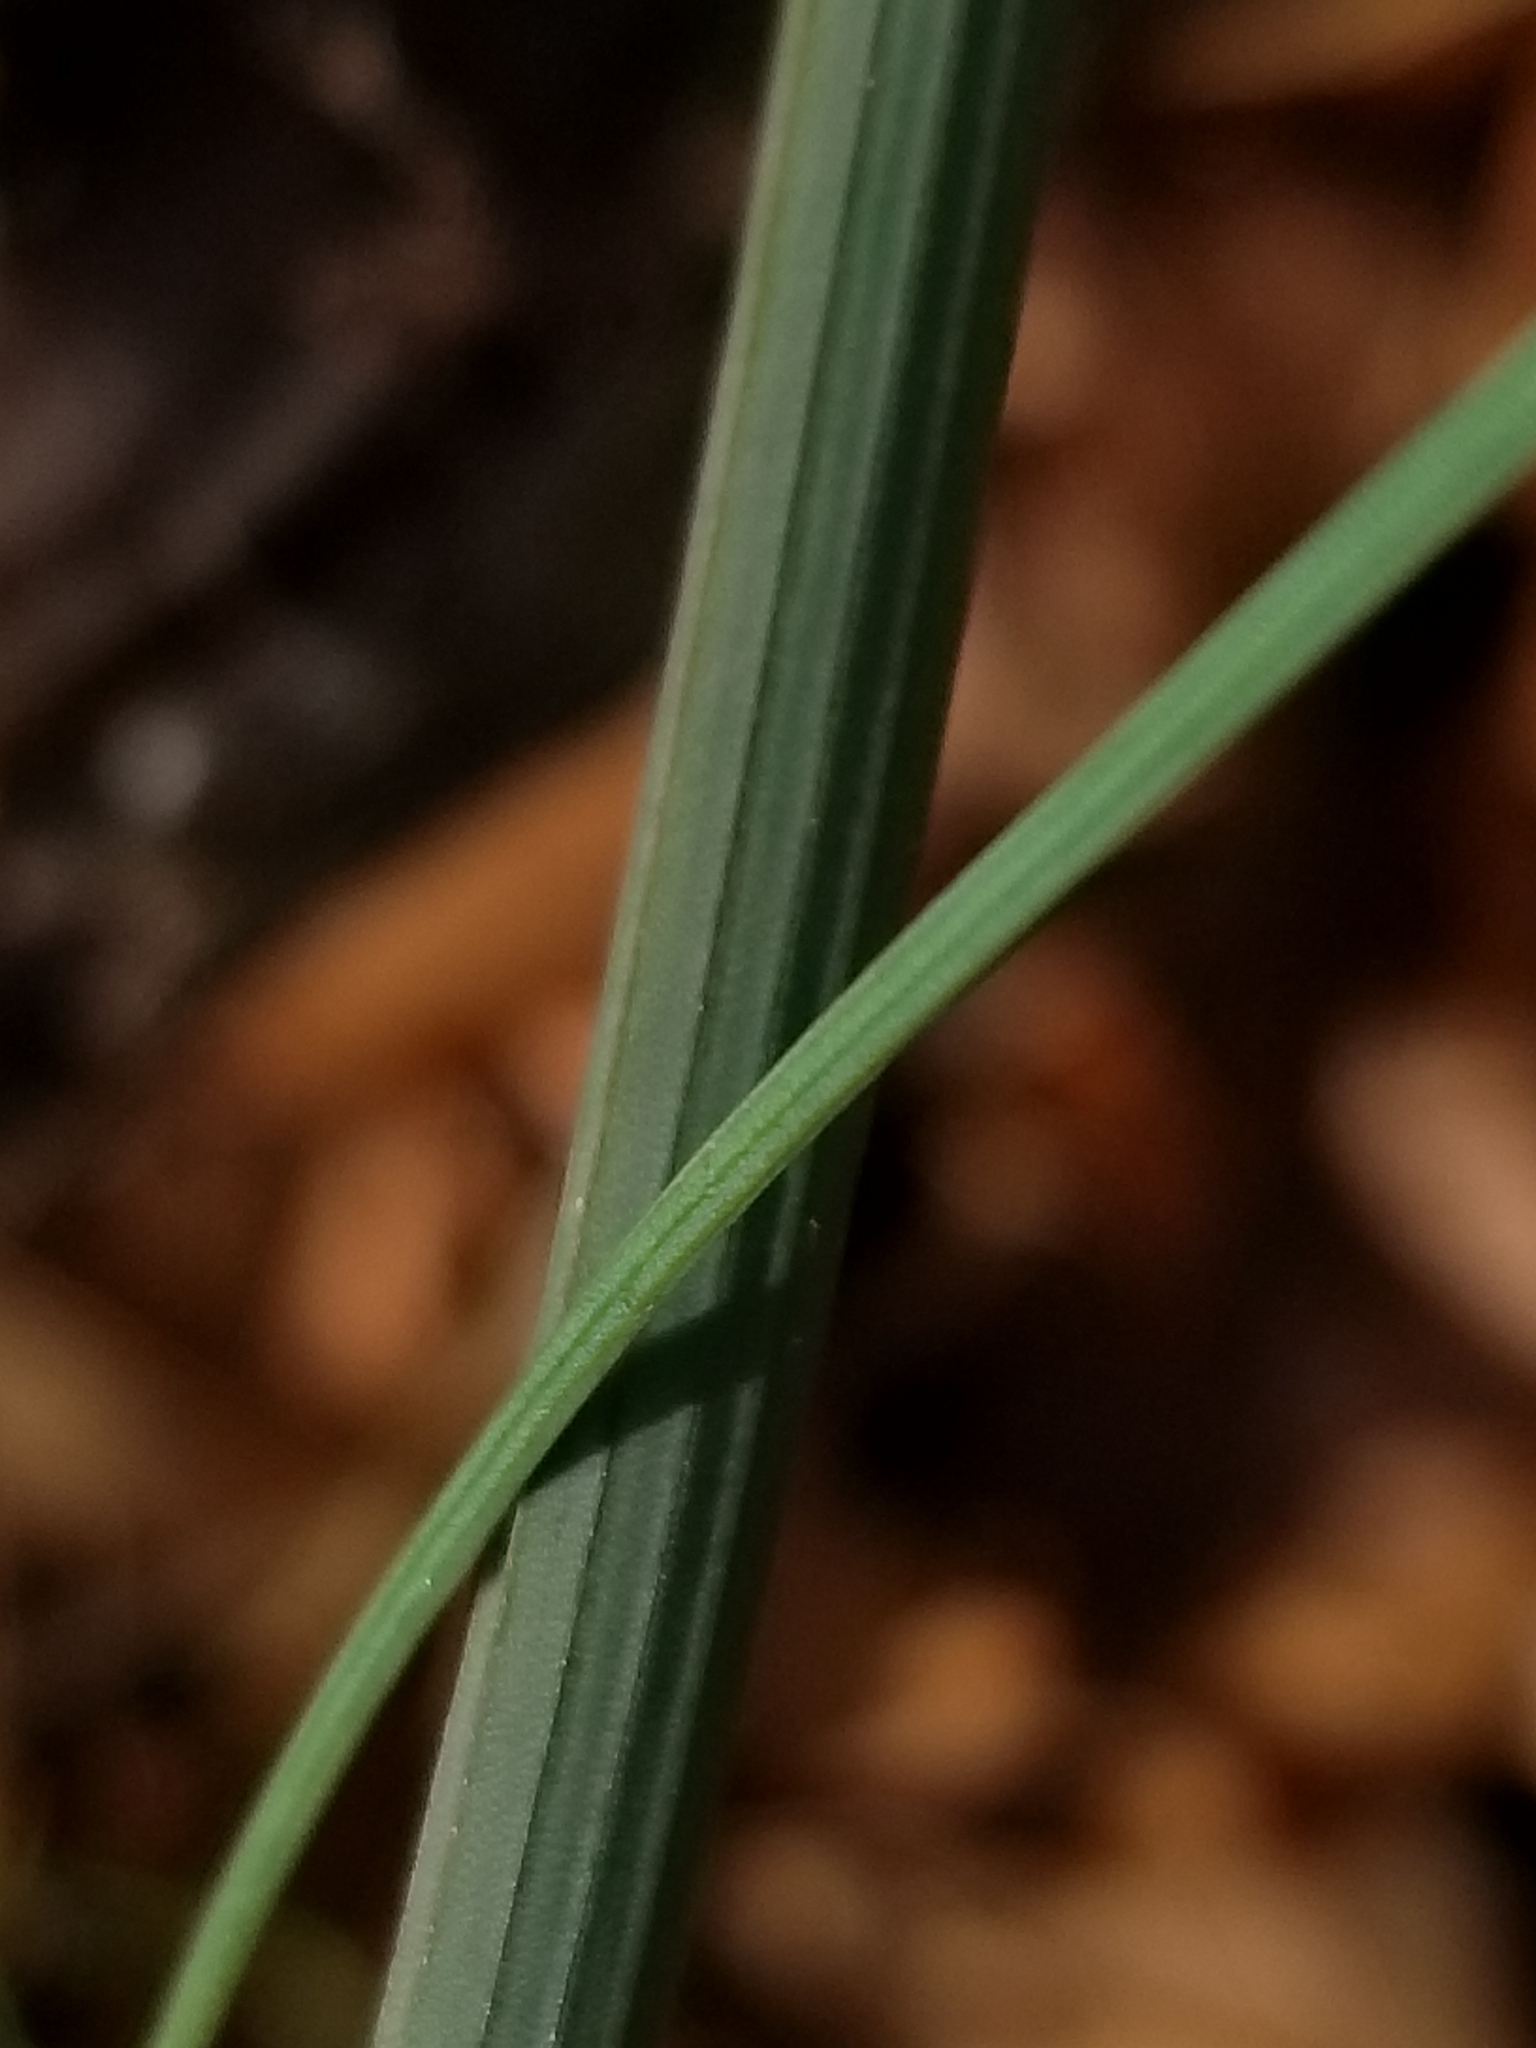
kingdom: Plantae
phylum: Tracheophyta
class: Liliopsida
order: Asparagales
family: Amaryllidaceae
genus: Allium
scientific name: Allium vineale
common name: Crow garlic
